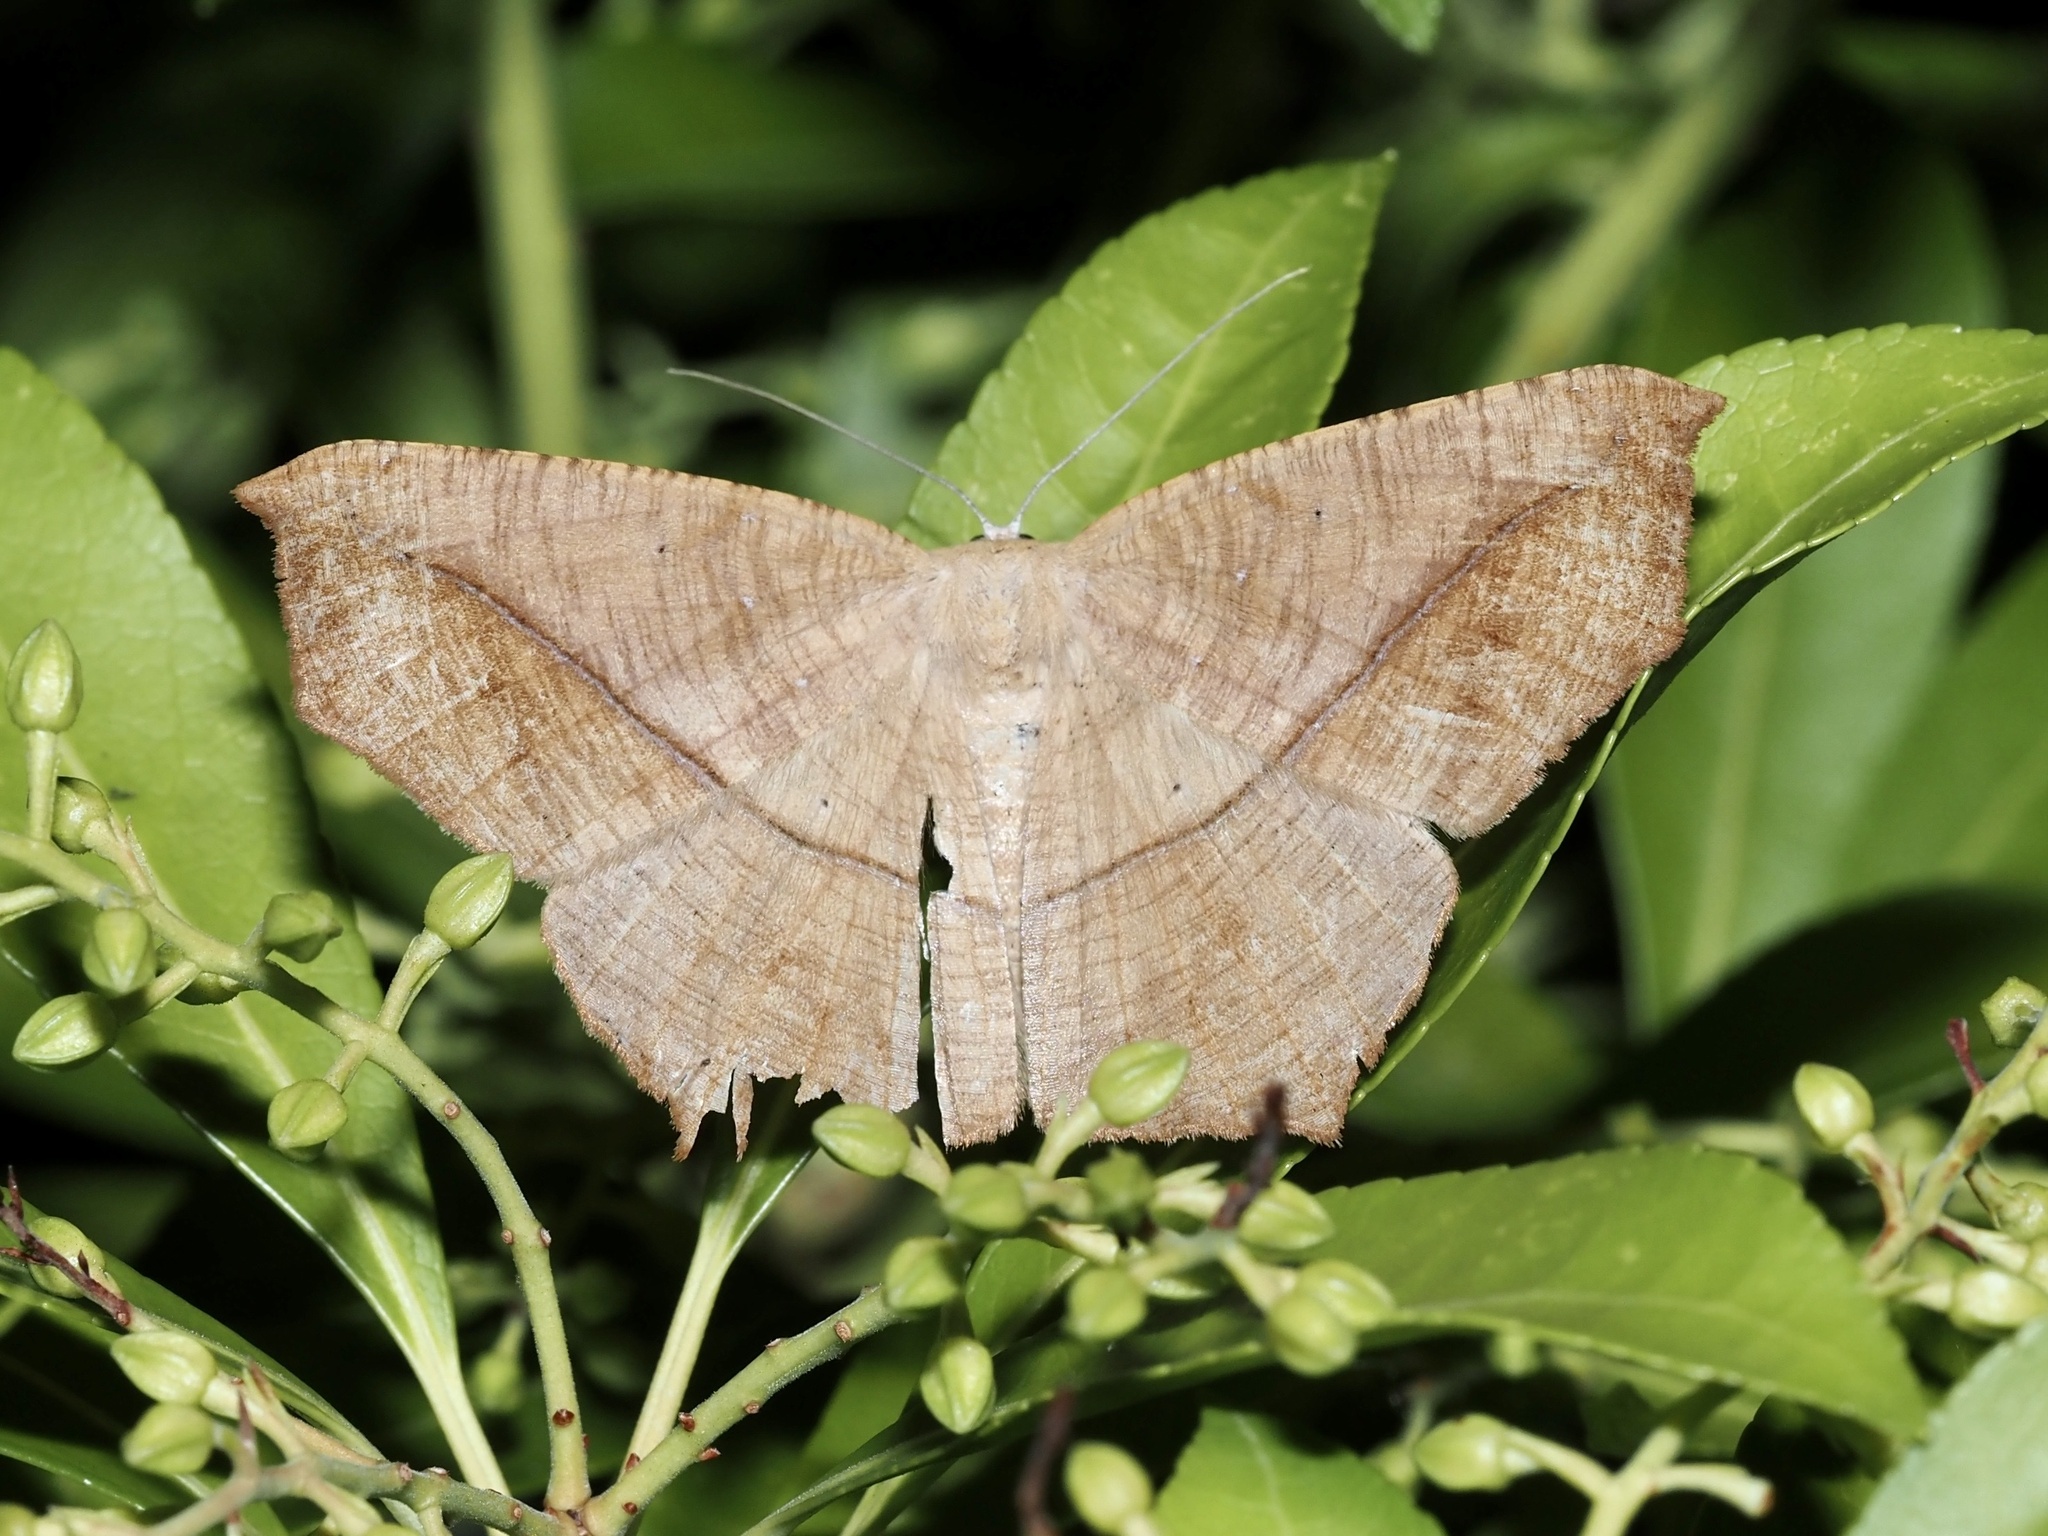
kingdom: Animalia
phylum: Arthropoda
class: Insecta
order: Lepidoptera
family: Geometridae
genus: Prochoerodes
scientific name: Prochoerodes lineola
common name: Large maple spanworm
